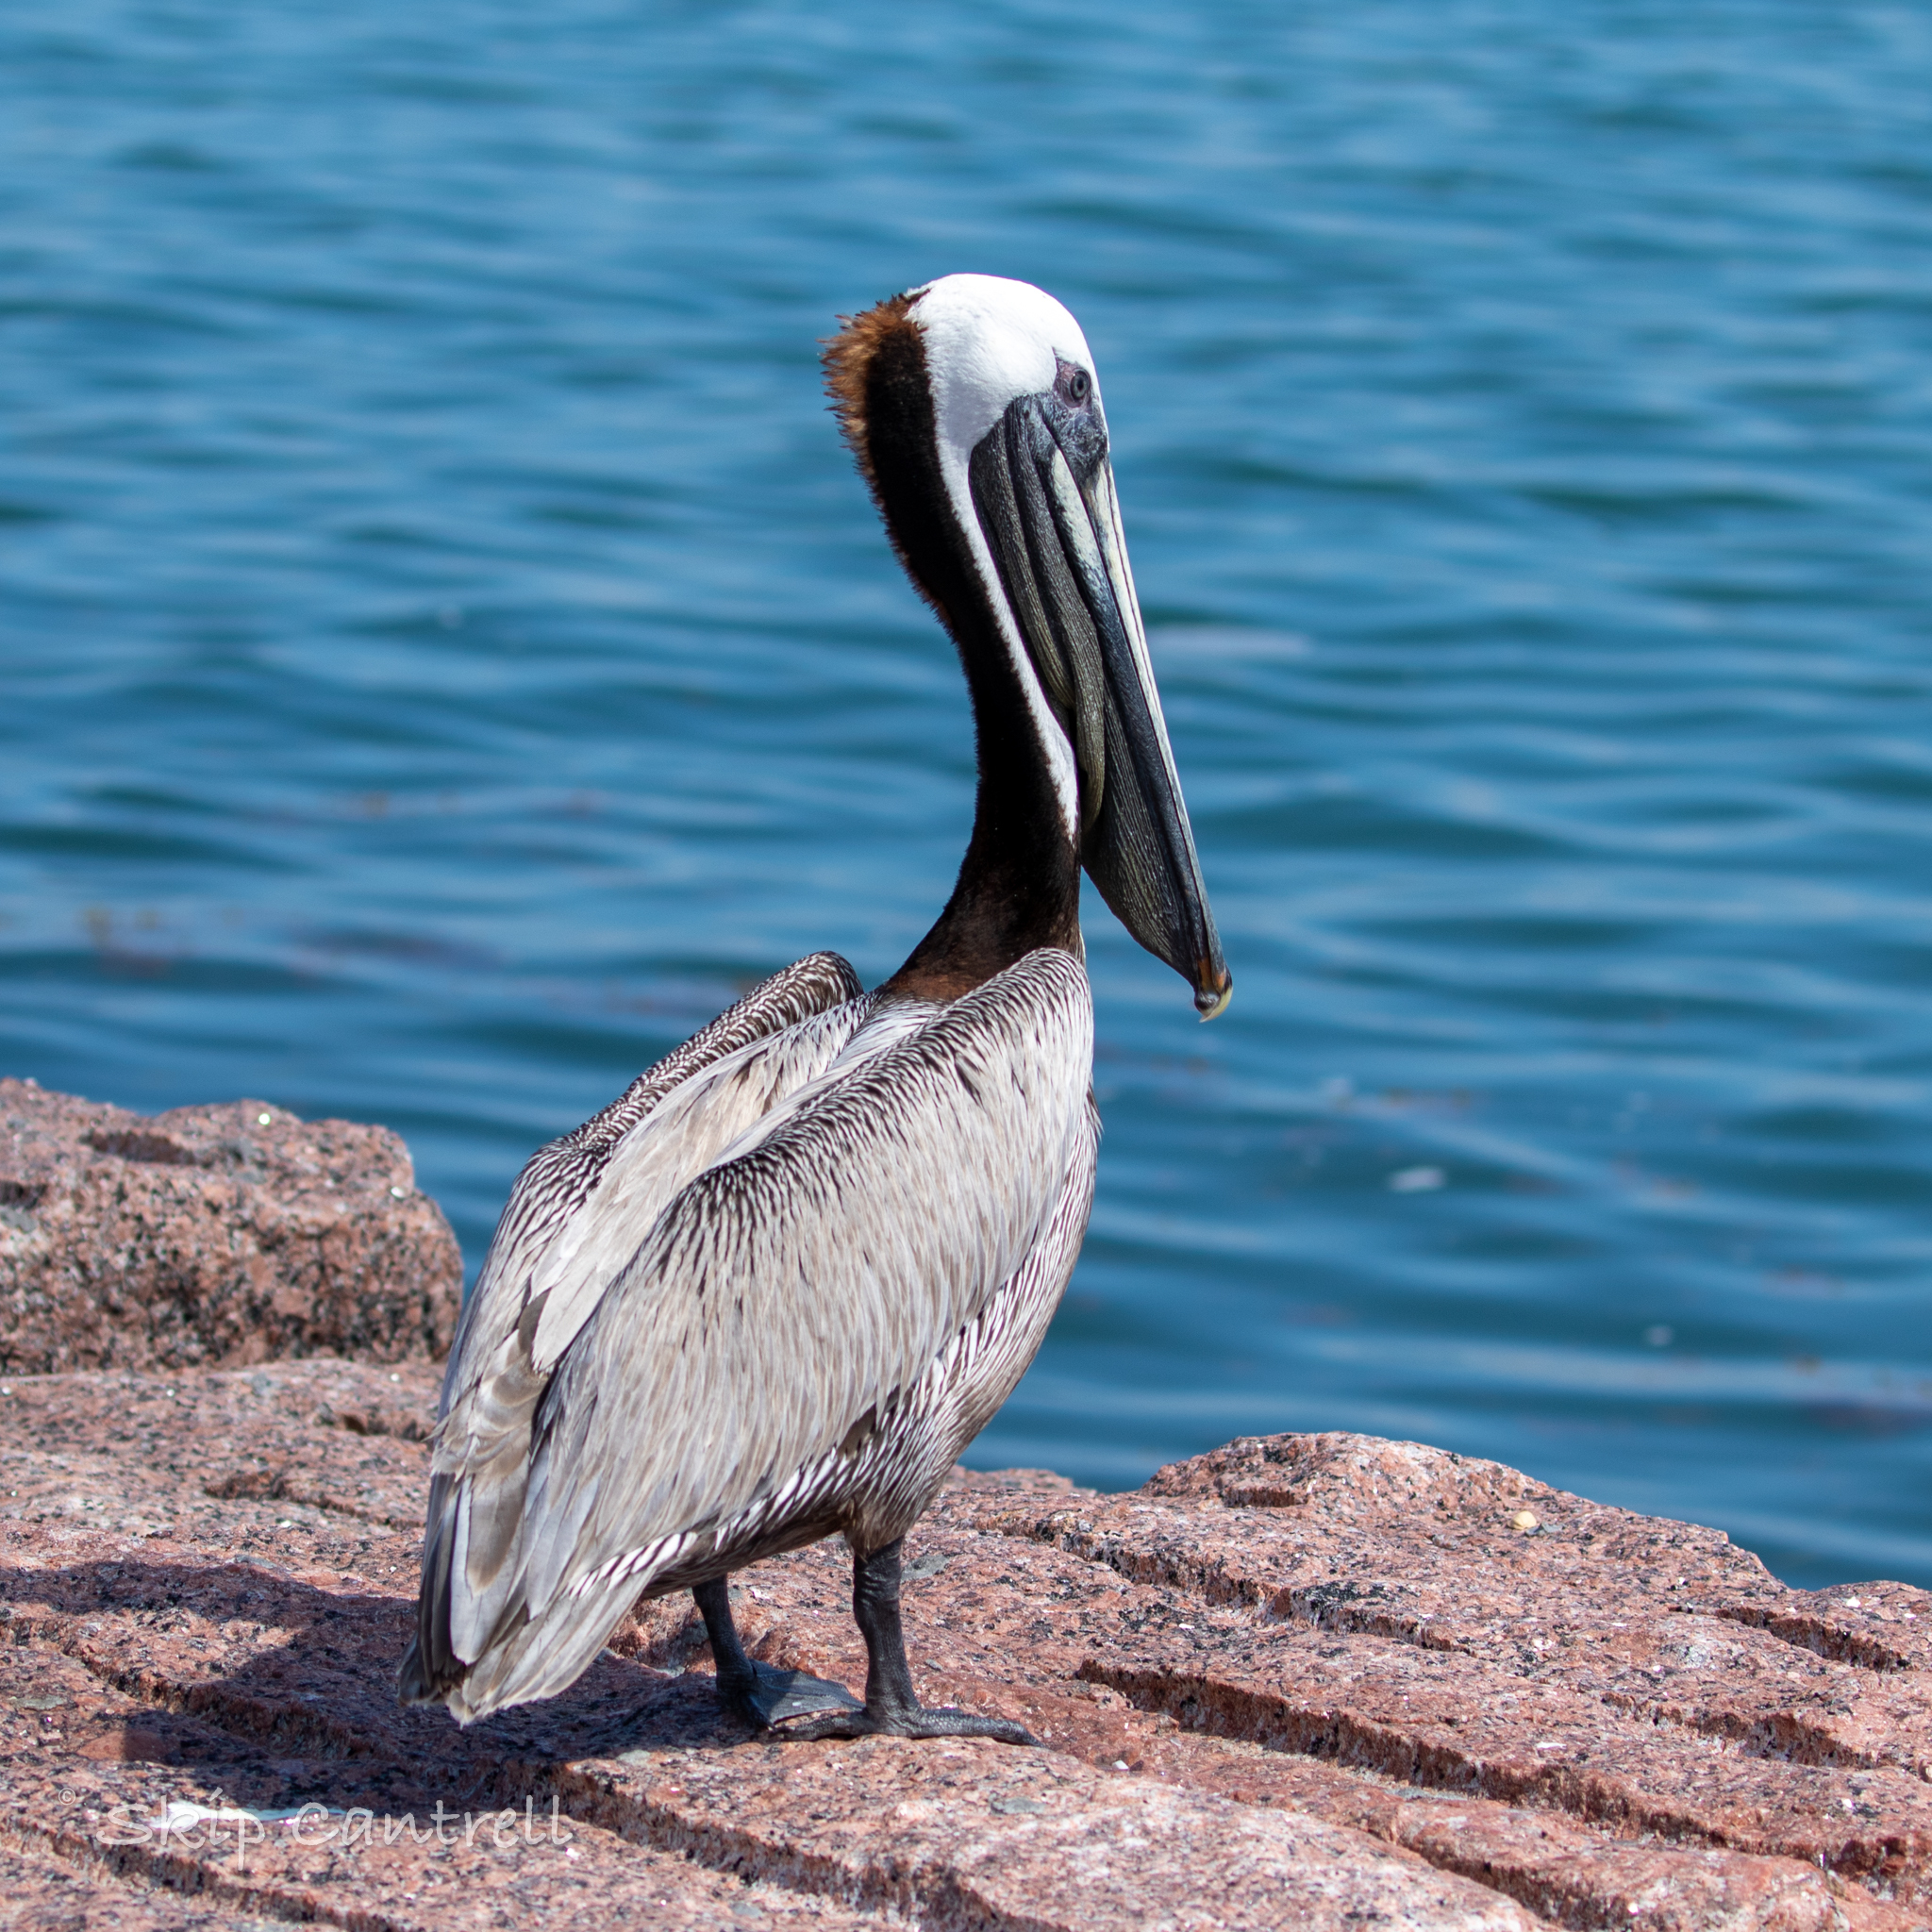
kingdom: Animalia
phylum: Chordata
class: Aves
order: Pelecaniformes
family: Pelecanidae
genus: Pelecanus
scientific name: Pelecanus occidentalis
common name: Brown pelican
